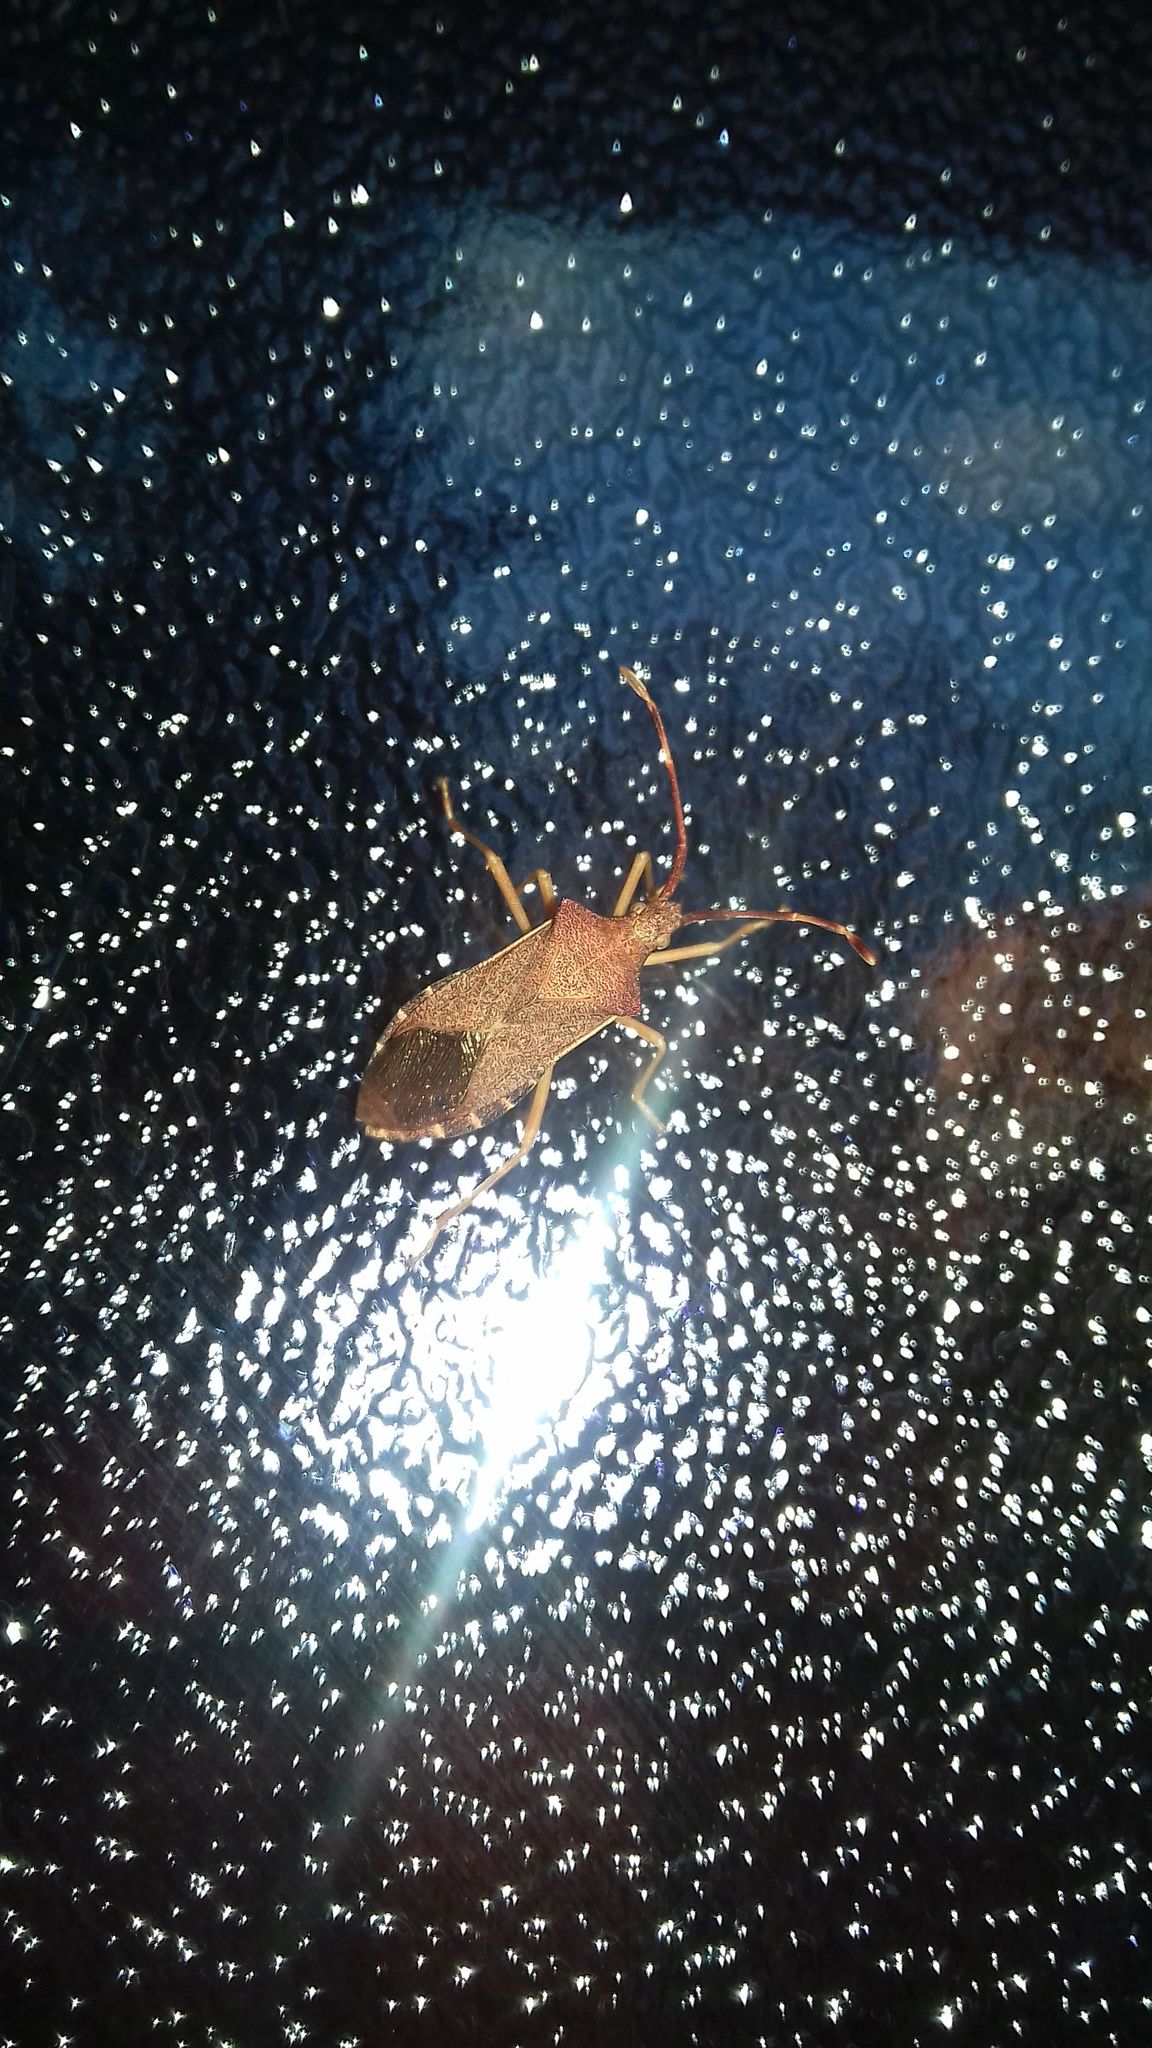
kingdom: Animalia
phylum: Arthropoda
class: Insecta
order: Hemiptera
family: Coreidae
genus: Gonocerus
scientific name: Gonocerus acuteangulatus
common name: Box bug
